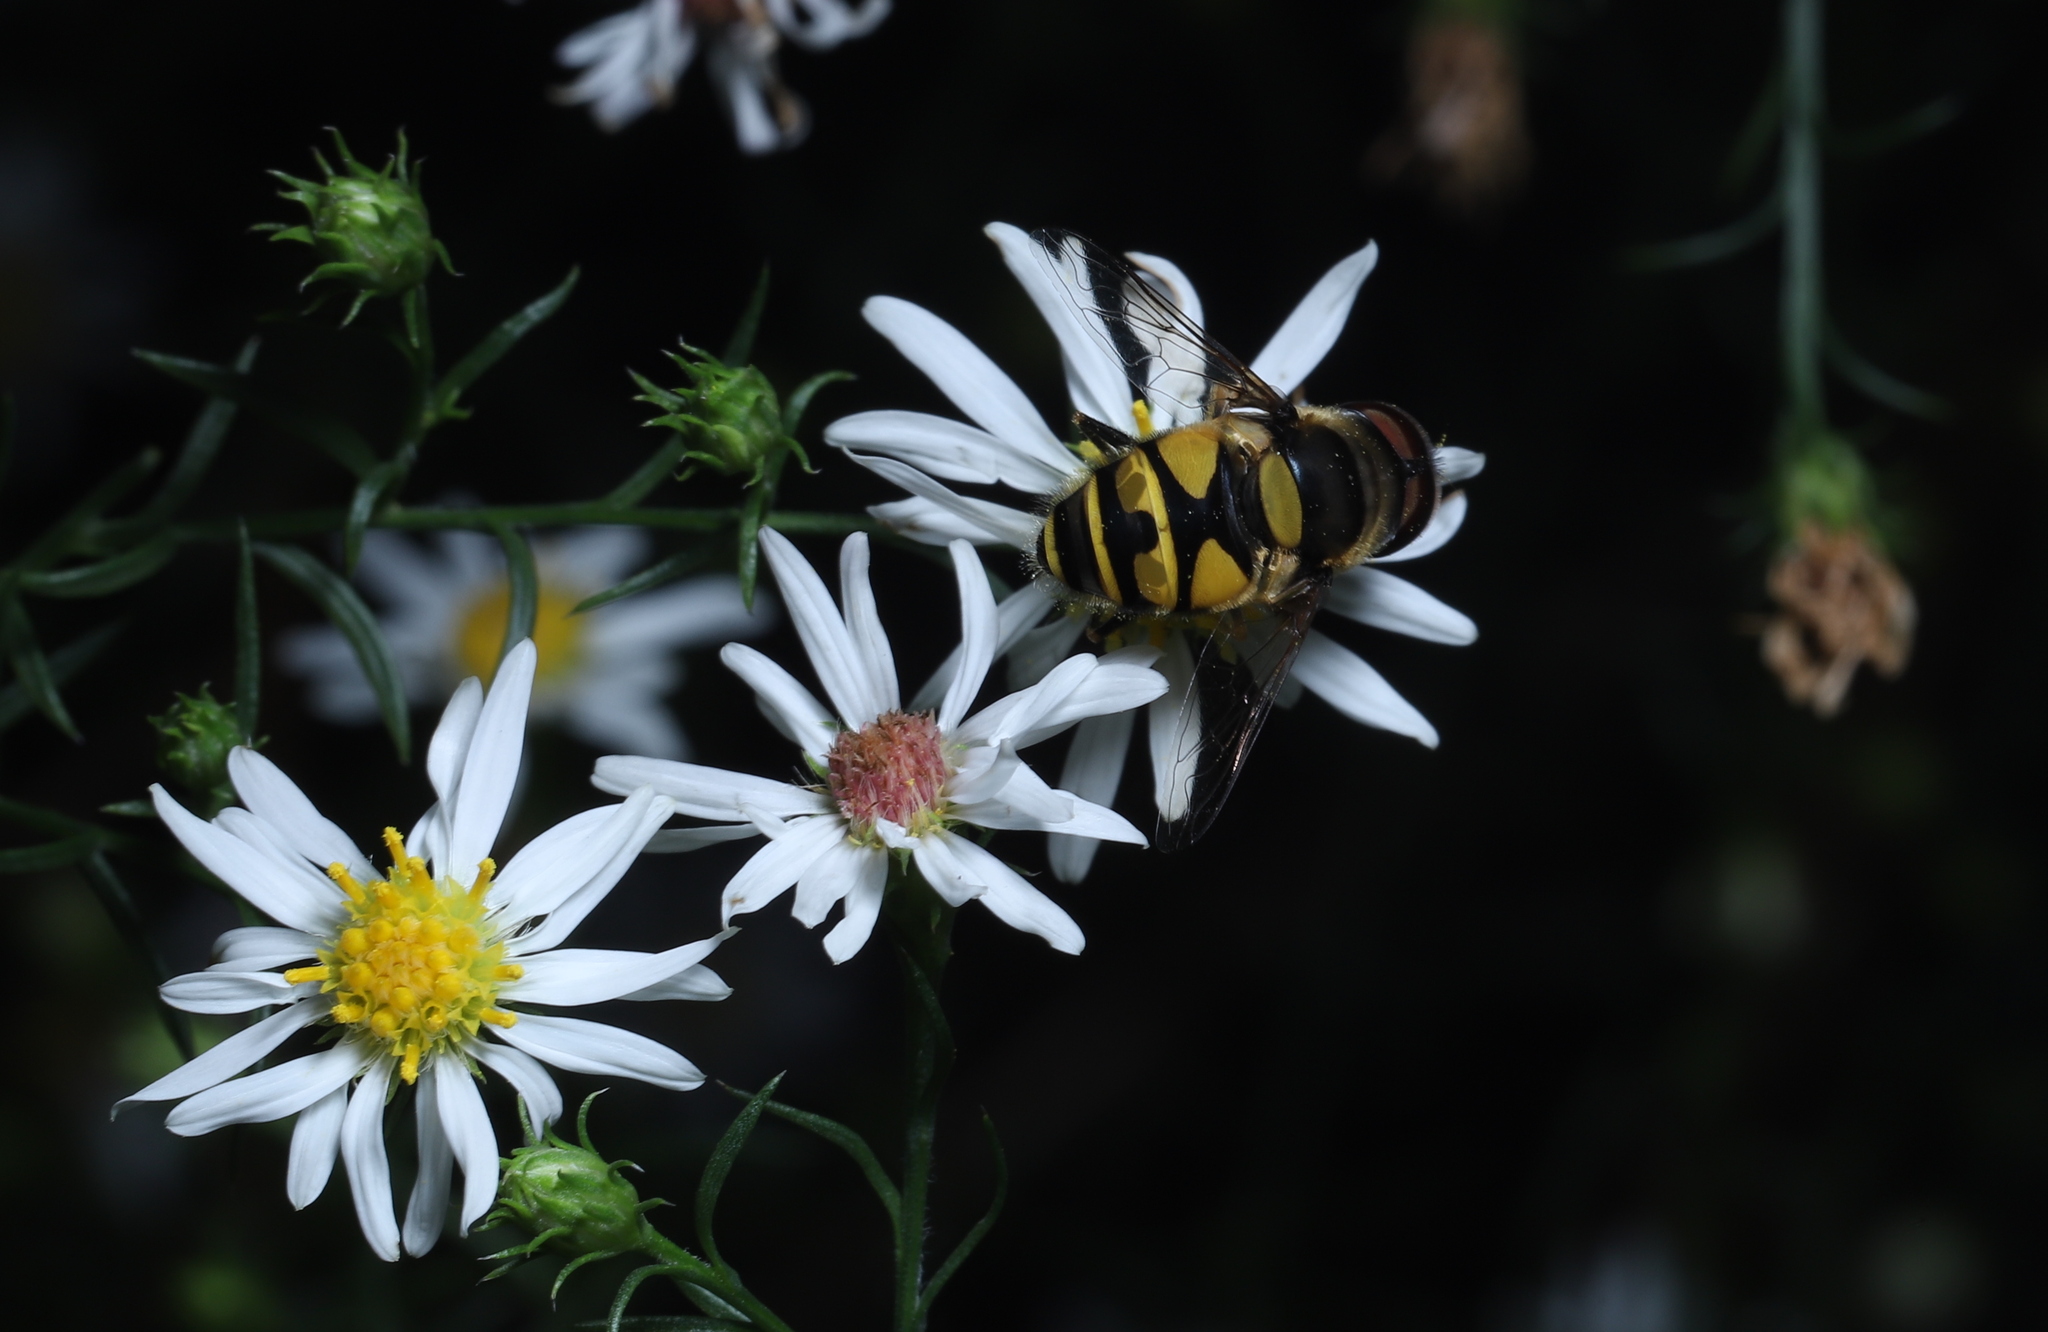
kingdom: Animalia
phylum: Arthropoda
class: Insecta
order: Diptera
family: Syrphidae
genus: Eristalis
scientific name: Eristalis transversa
